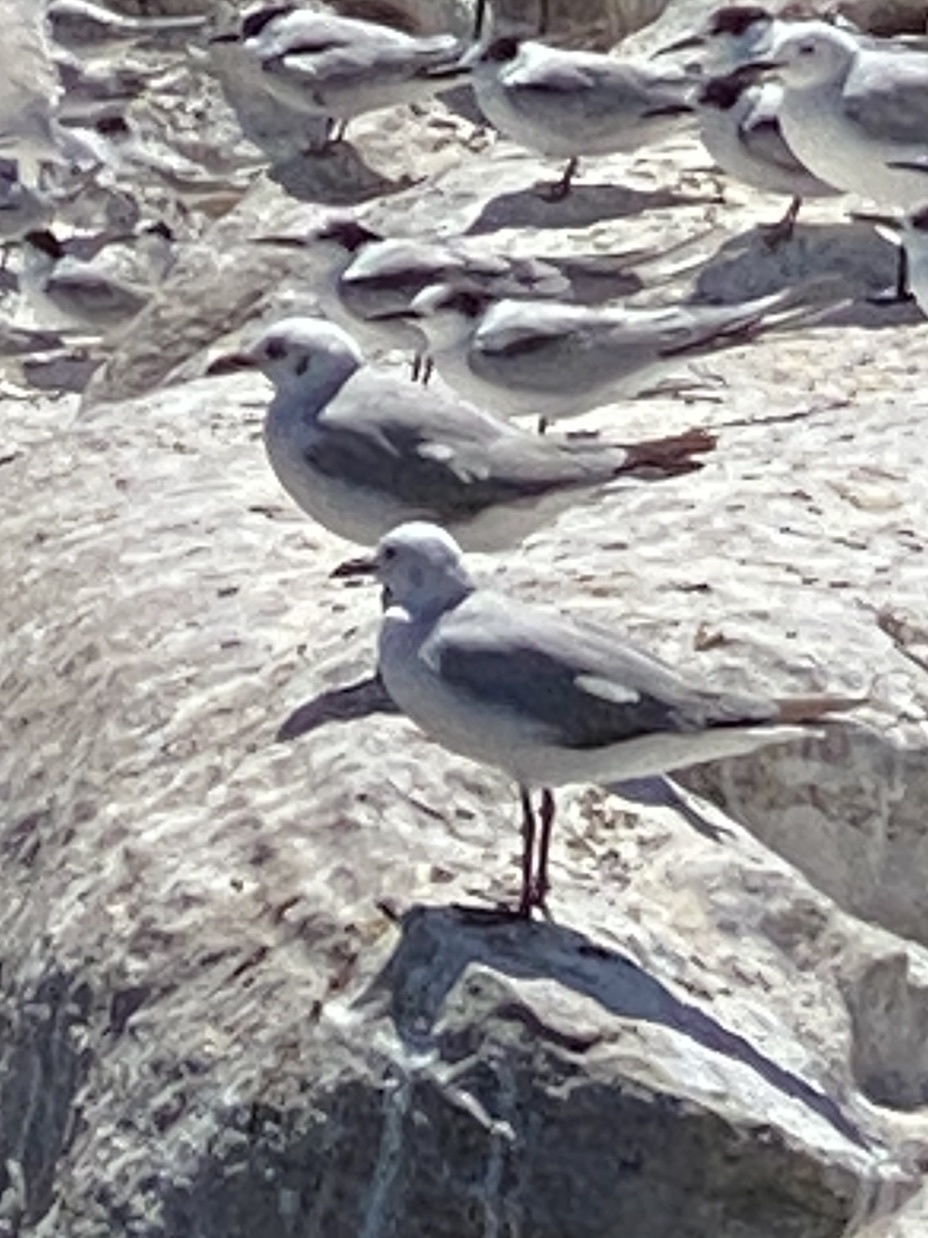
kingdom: Animalia
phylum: Chordata
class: Aves
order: Charadriiformes
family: Laridae
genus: Chroicocephalus
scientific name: Chroicocephalus hartlaubii
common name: Hartlaub's gull
